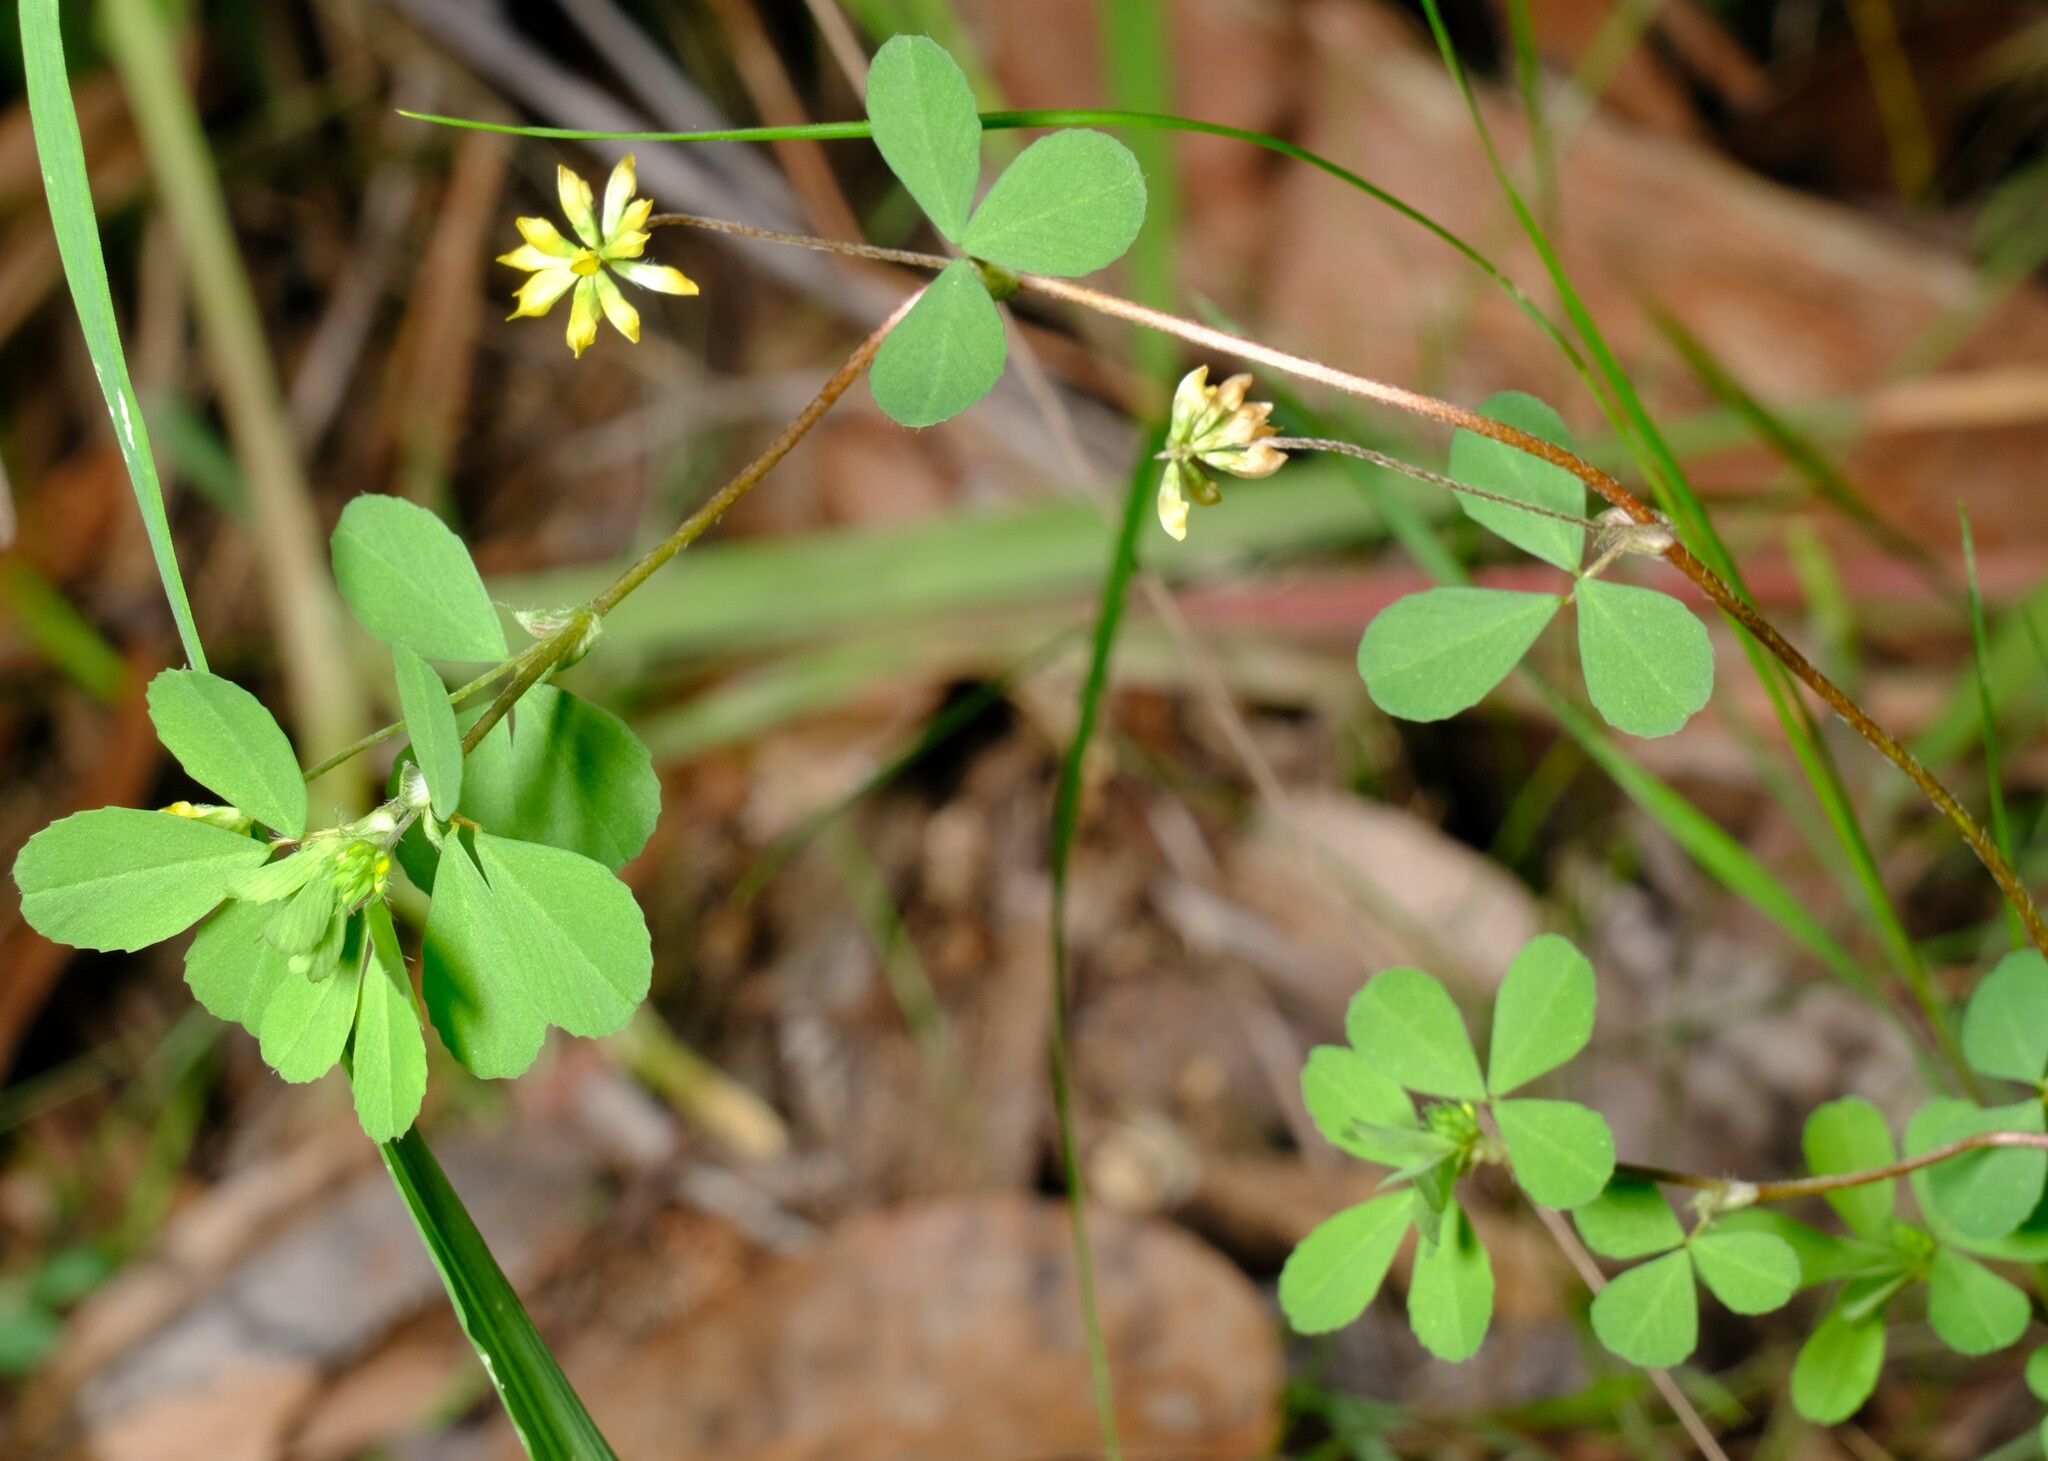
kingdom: Plantae
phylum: Tracheophyta
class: Magnoliopsida
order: Fabales
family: Fabaceae
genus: Trifolium
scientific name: Trifolium dubium
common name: Suckling clover
